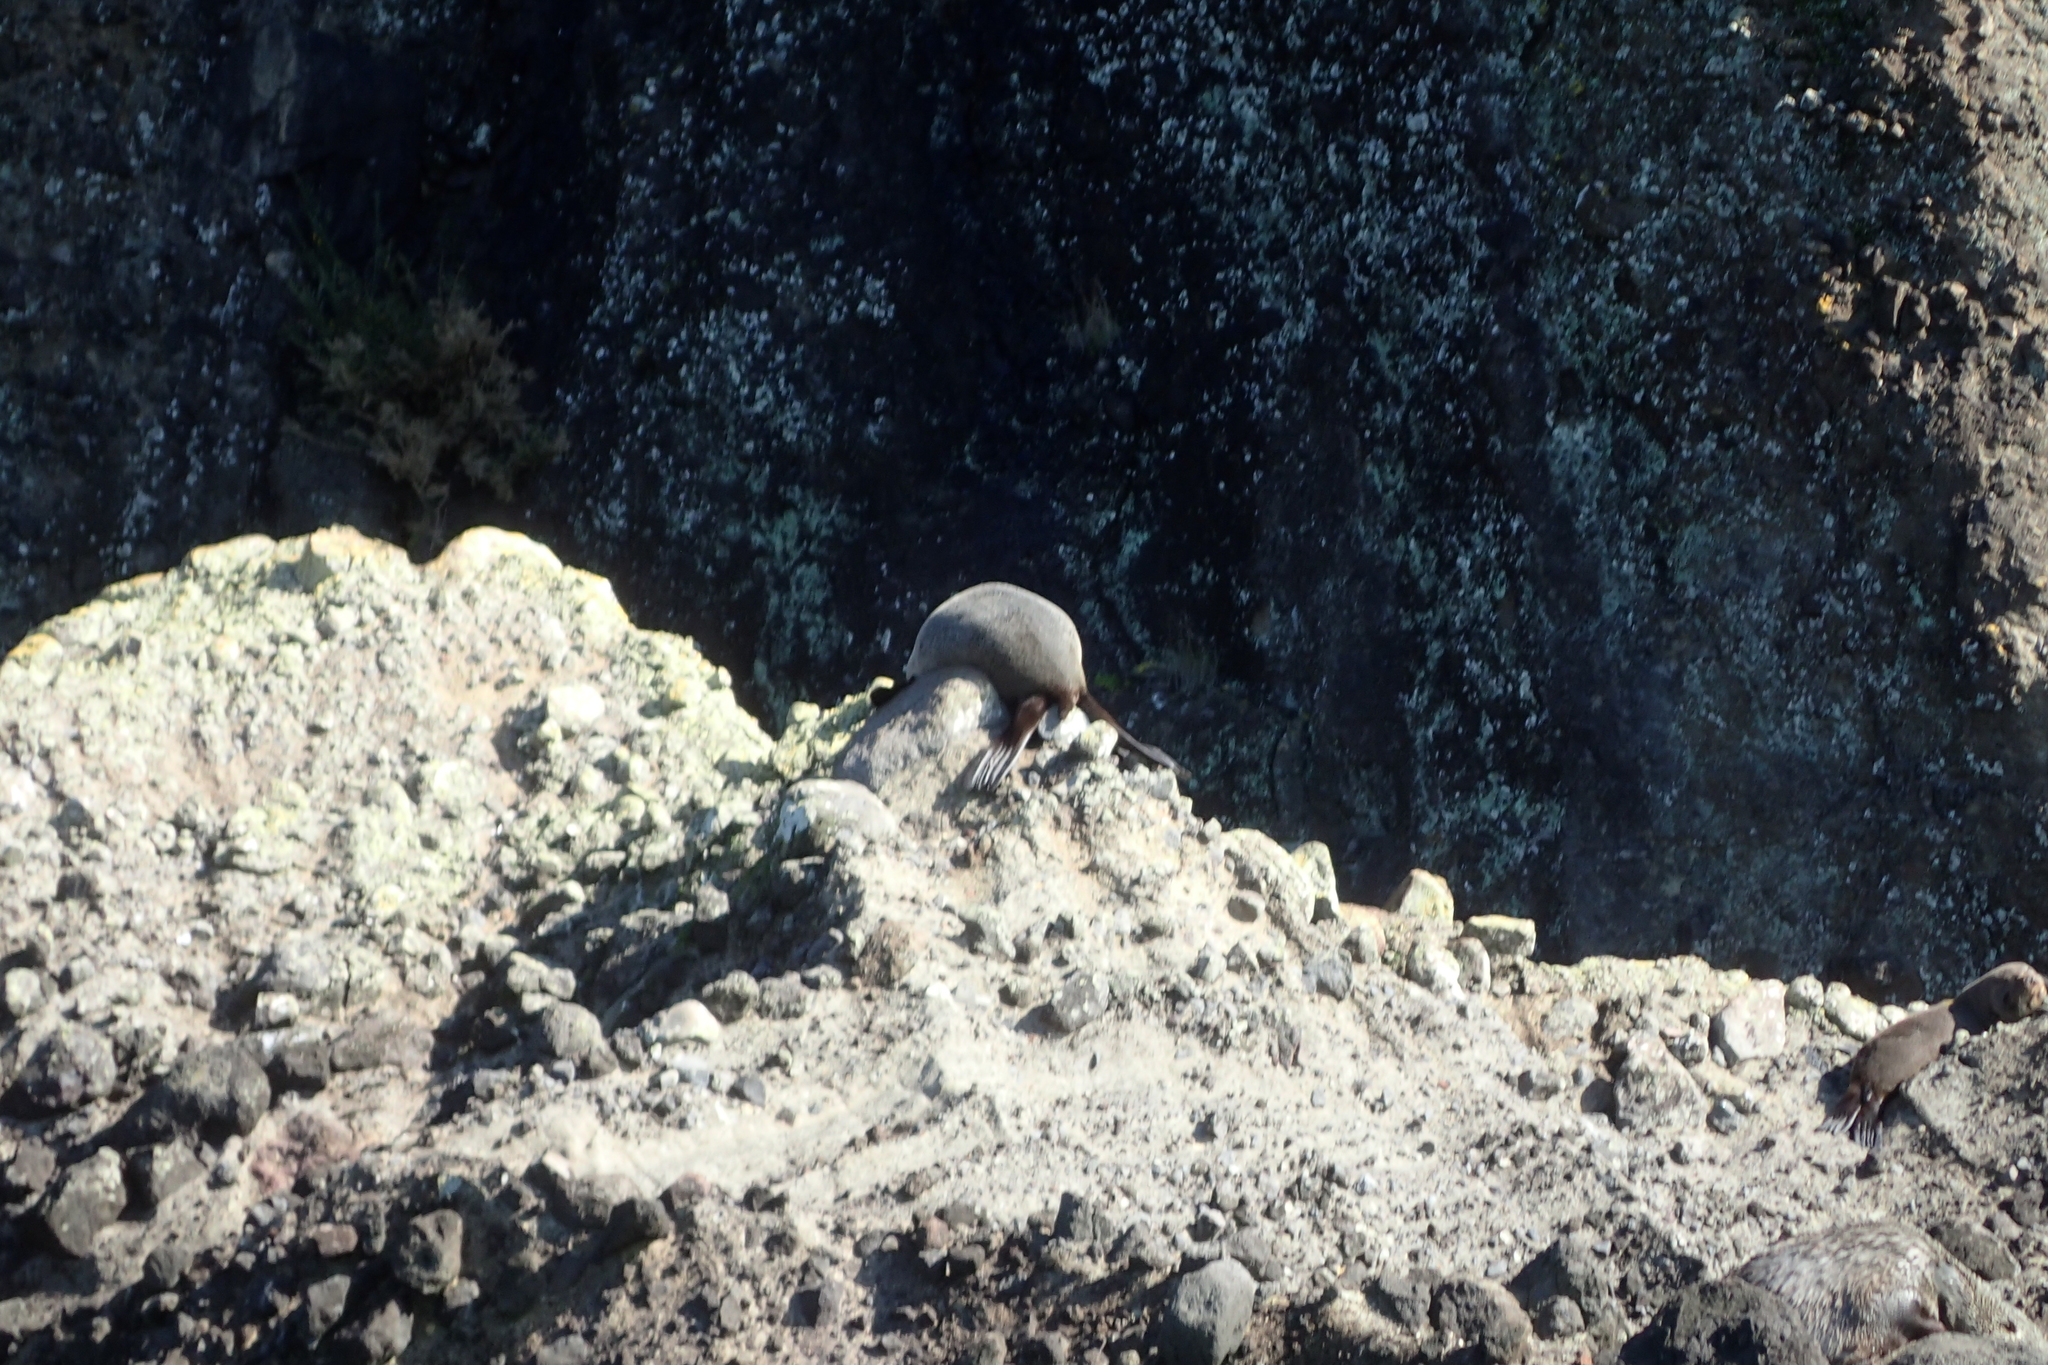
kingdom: Animalia
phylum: Chordata
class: Mammalia
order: Carnivora
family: Otariidae
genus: Arctocephalus
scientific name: Arctocephalus forsteri
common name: New zealand fur seal
